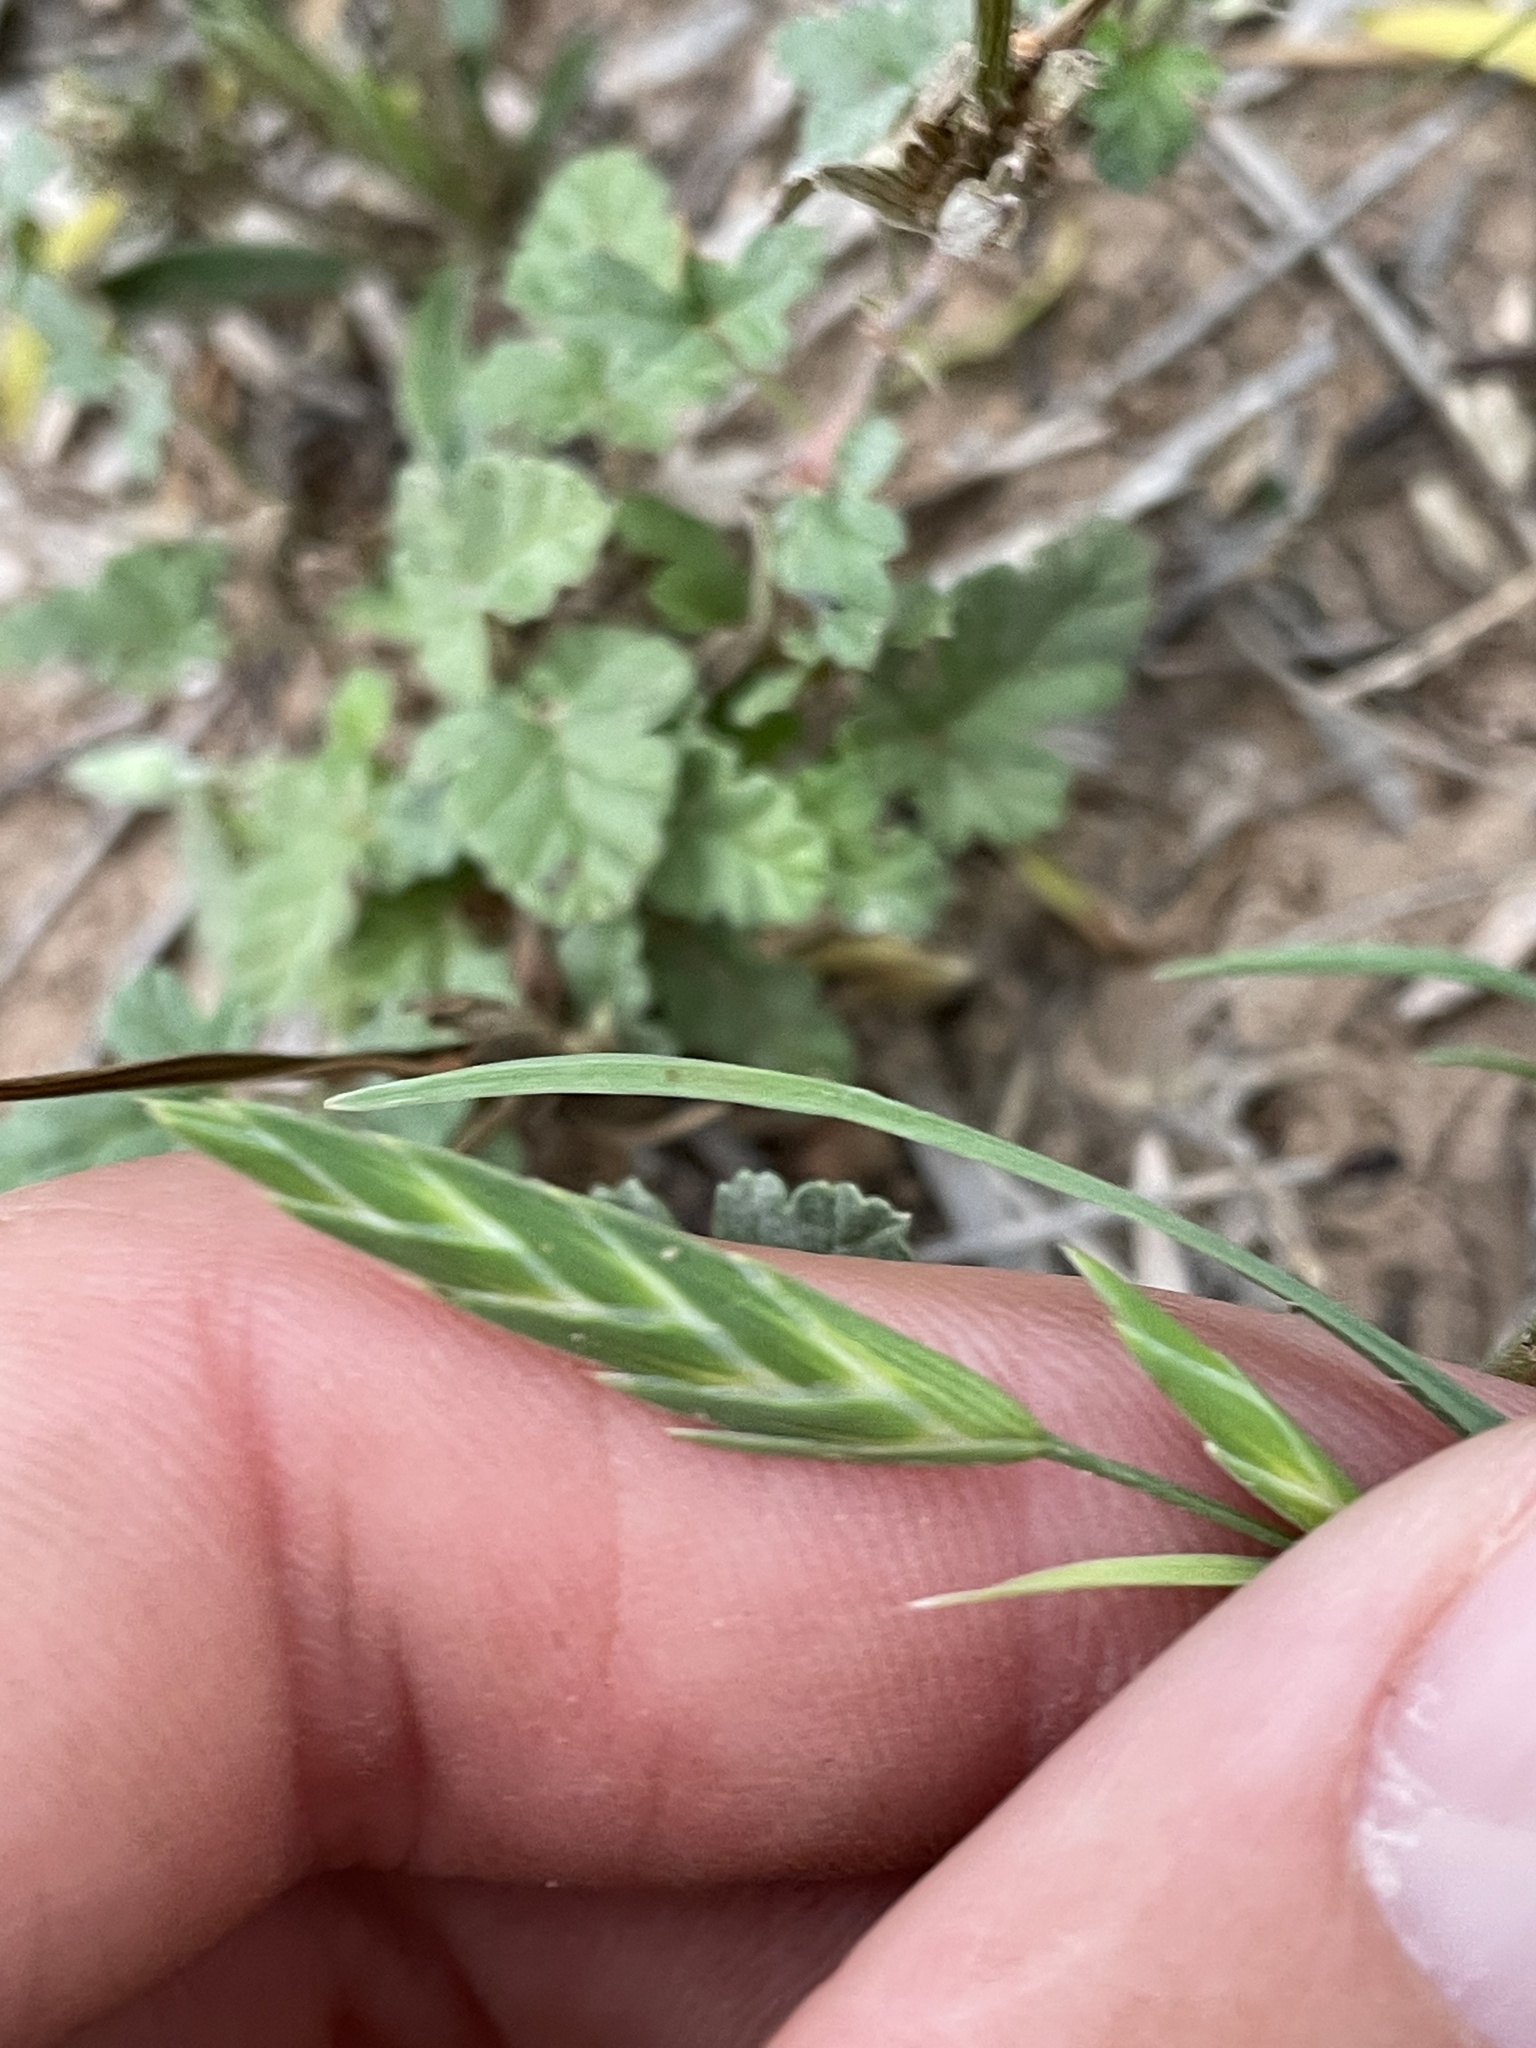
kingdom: Plantae
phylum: Tracheophyta
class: Liliopsida
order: Poales
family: Poaceae
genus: Bromus
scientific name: Bromus catharticus
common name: Rescuegrass
